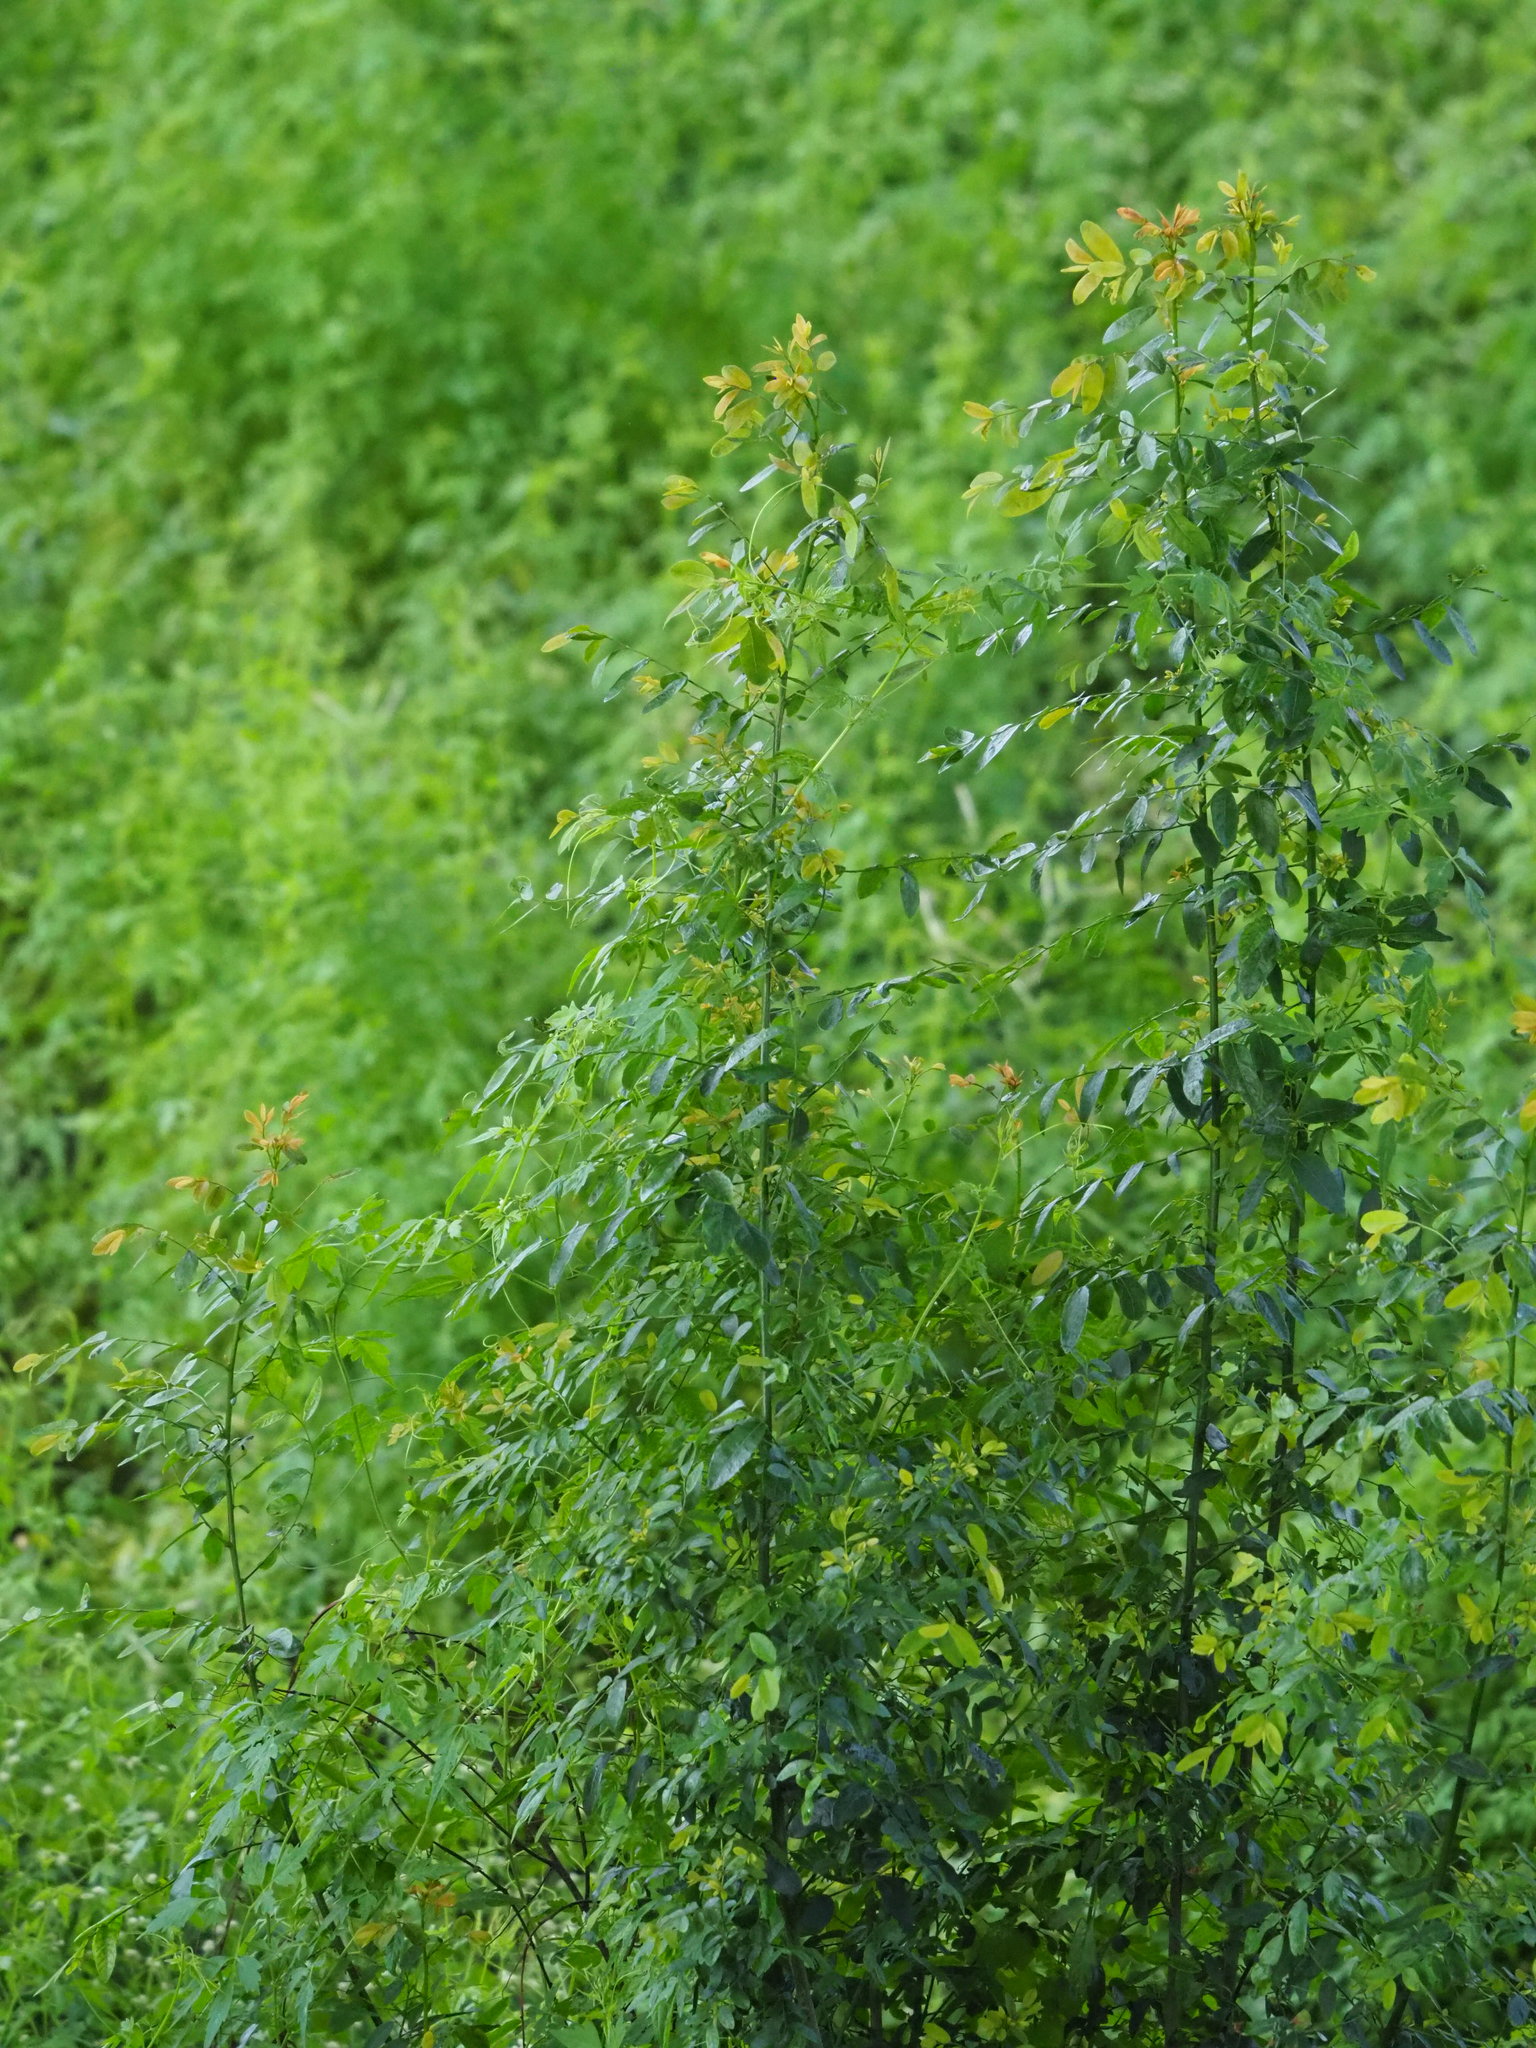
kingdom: Plantae
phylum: Tracheophyta
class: Magnoliopsida
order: Malpighiales
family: Phyllanthaceae
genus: Phyllanthus
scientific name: Phyllanthus reticulatus
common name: Potato bush
